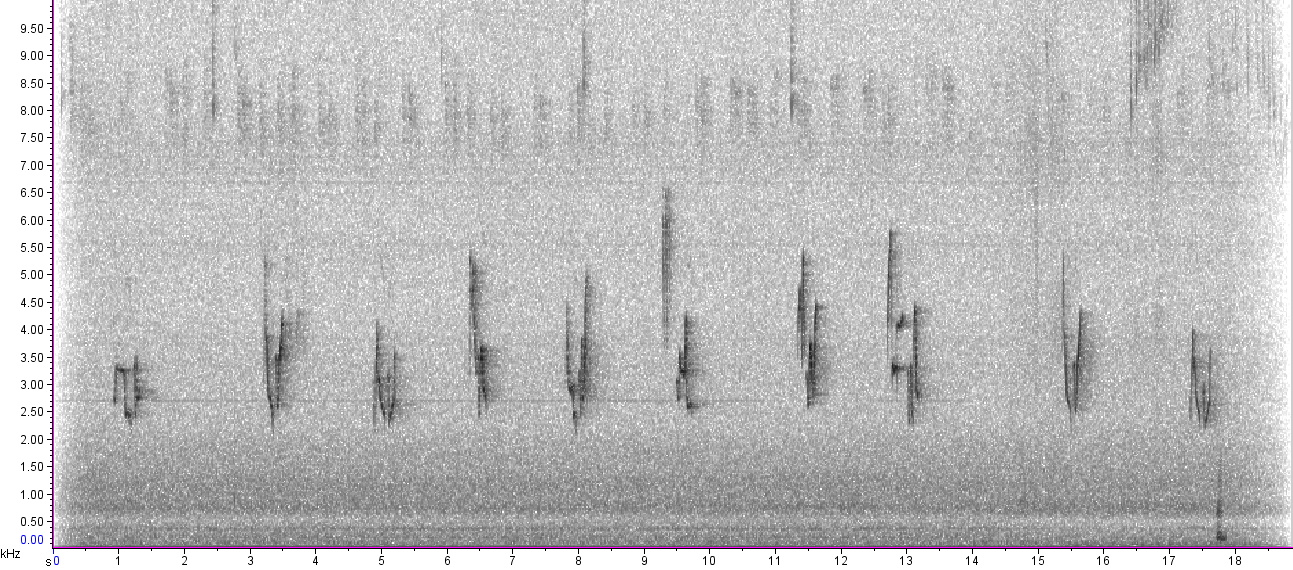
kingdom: Animalia
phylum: Chordata
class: Aves
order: Passeriformes
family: Vireonidae
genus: Vireo
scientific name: Vireo olivaceus
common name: Red-eyed vireo
